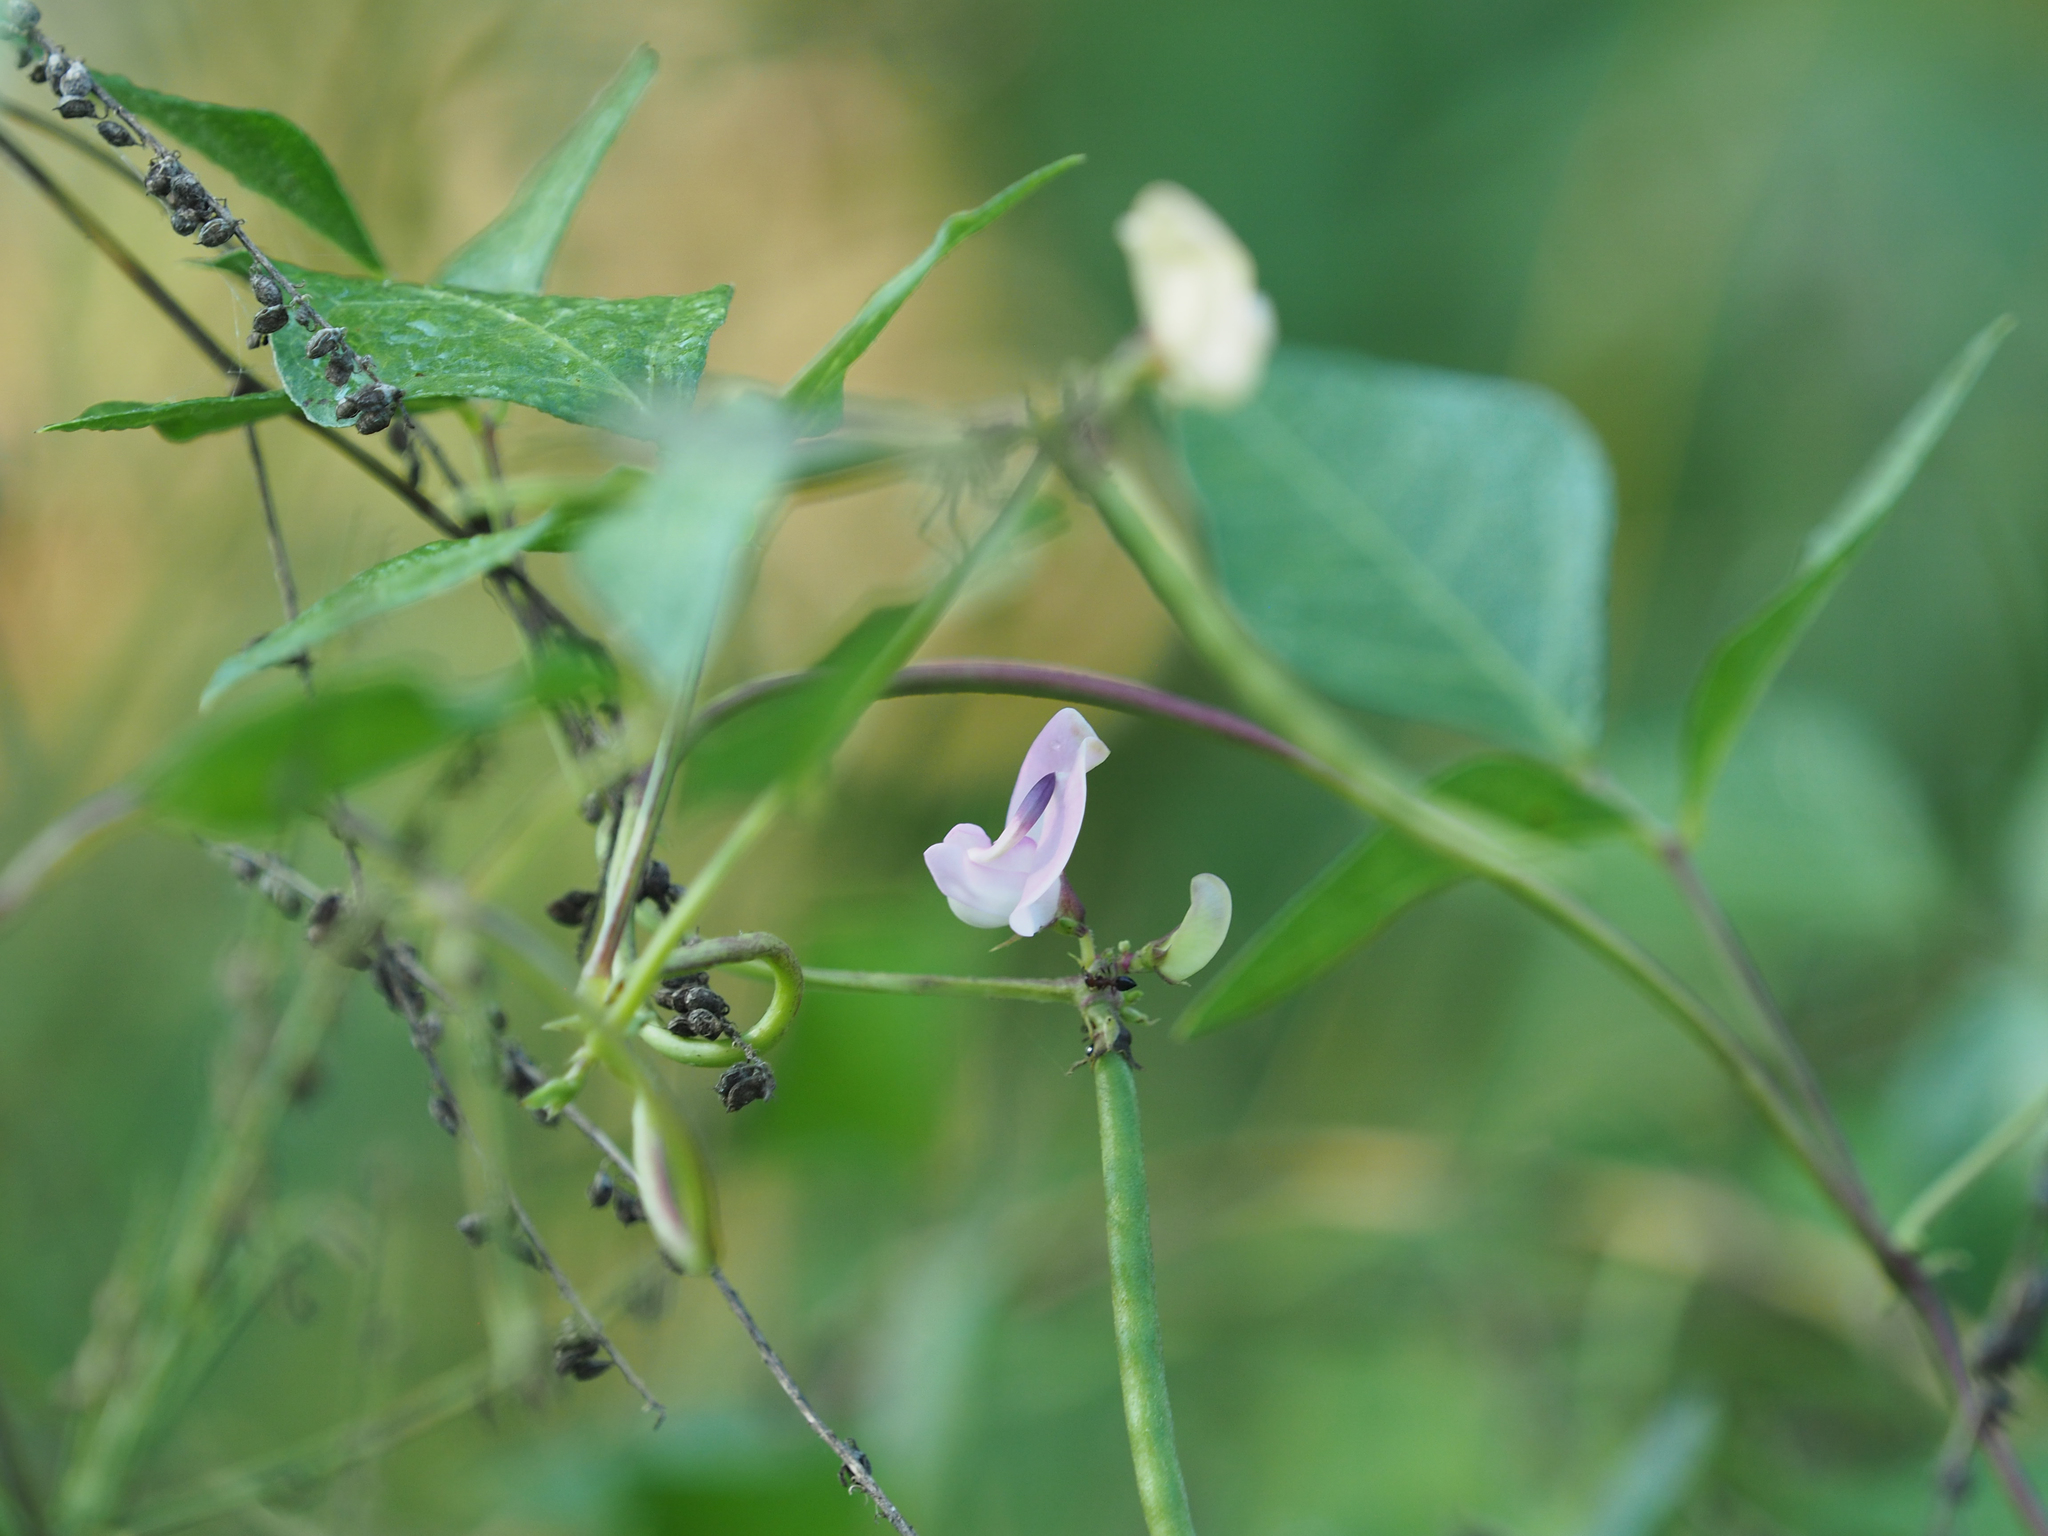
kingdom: Plantae
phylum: Tracheophyta
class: Magnoliopsida
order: Fabales
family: Fabaceae
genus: Strophostyles
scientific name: Strophostyles helvola
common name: Trailing wild bean
